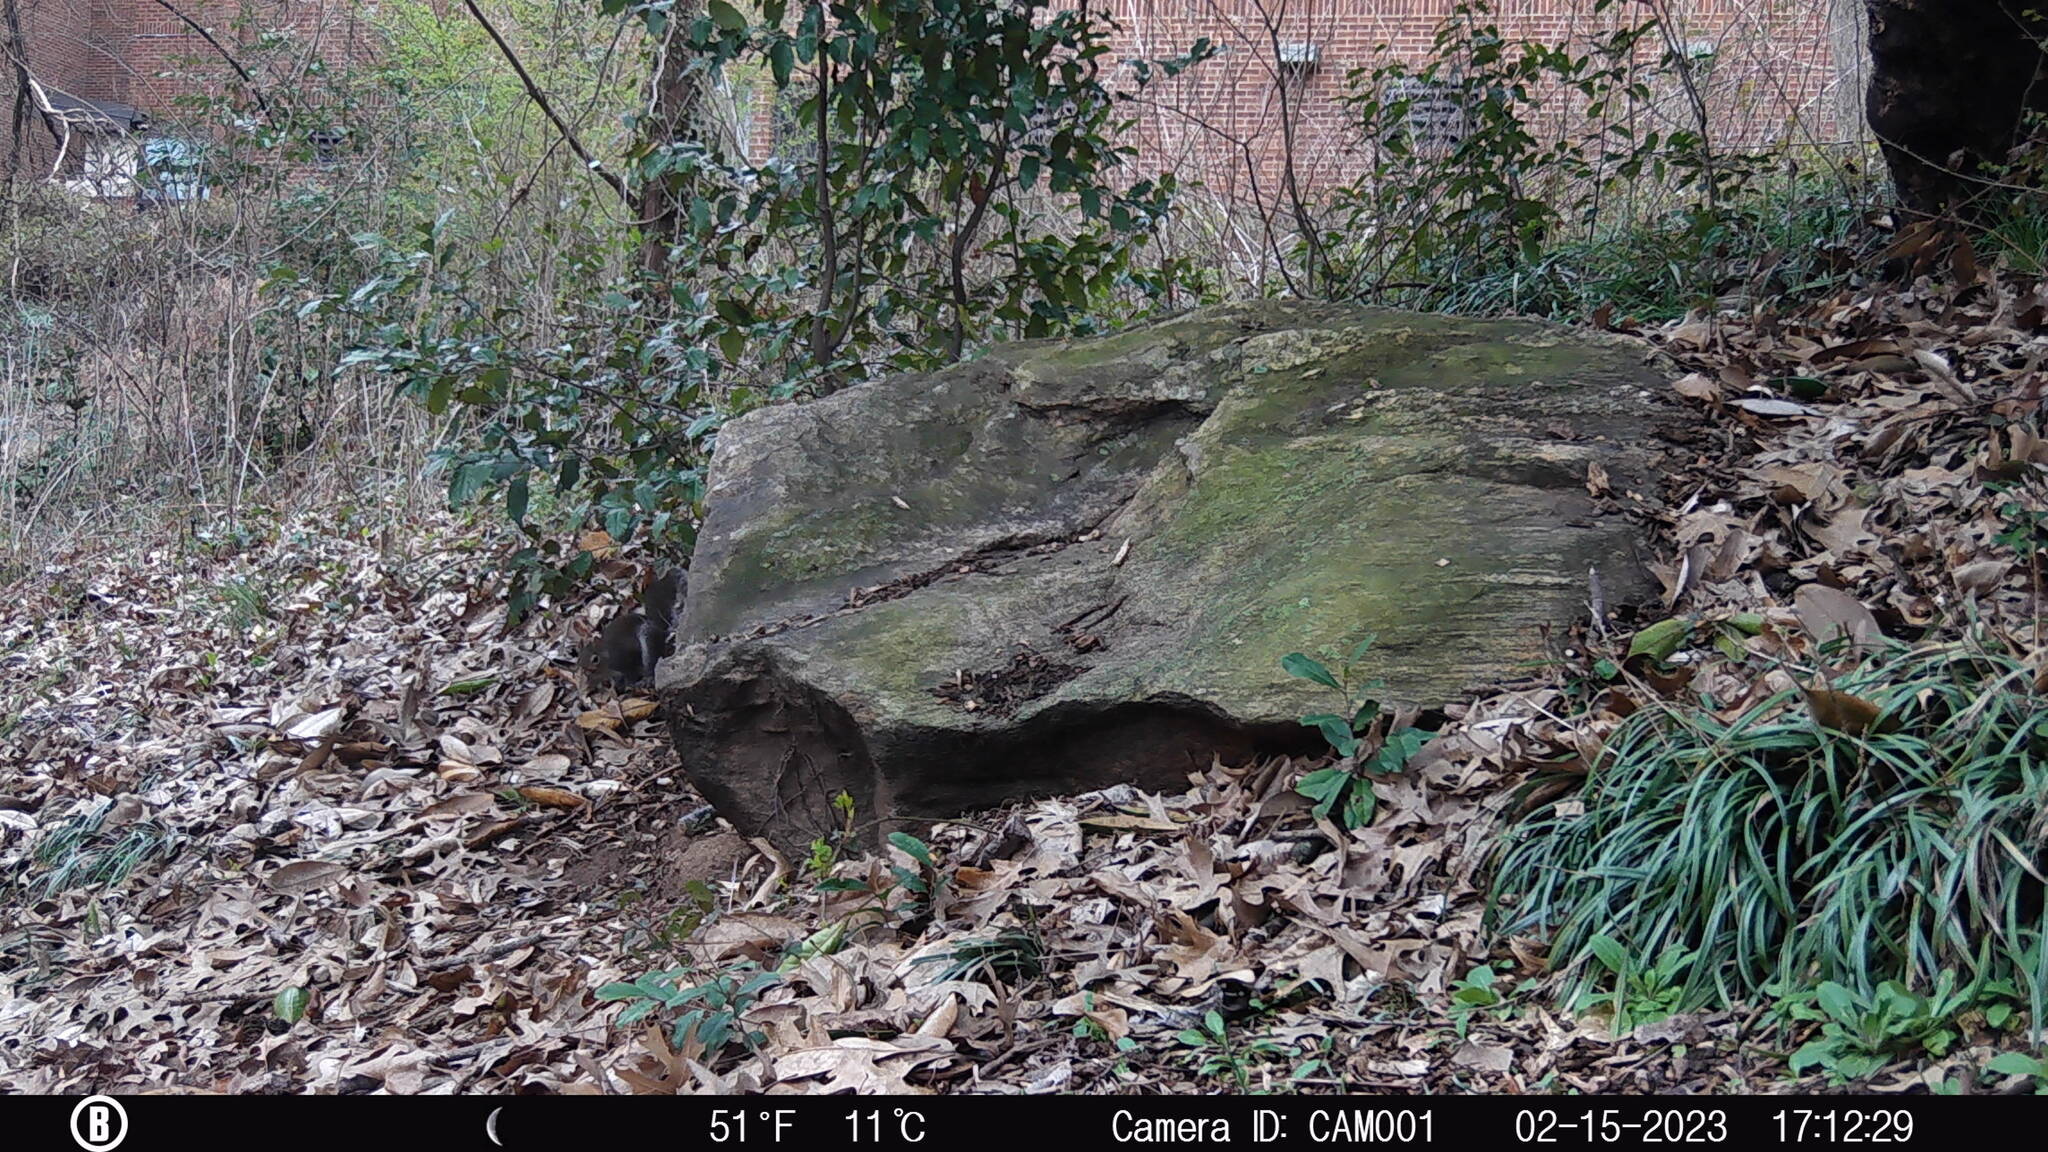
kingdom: Animalia
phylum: Chordata
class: Mammalia
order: Rodentia
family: Sciuridae
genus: Sciurus
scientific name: Sciurus carolinensis
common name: Eastern gray squirrel
